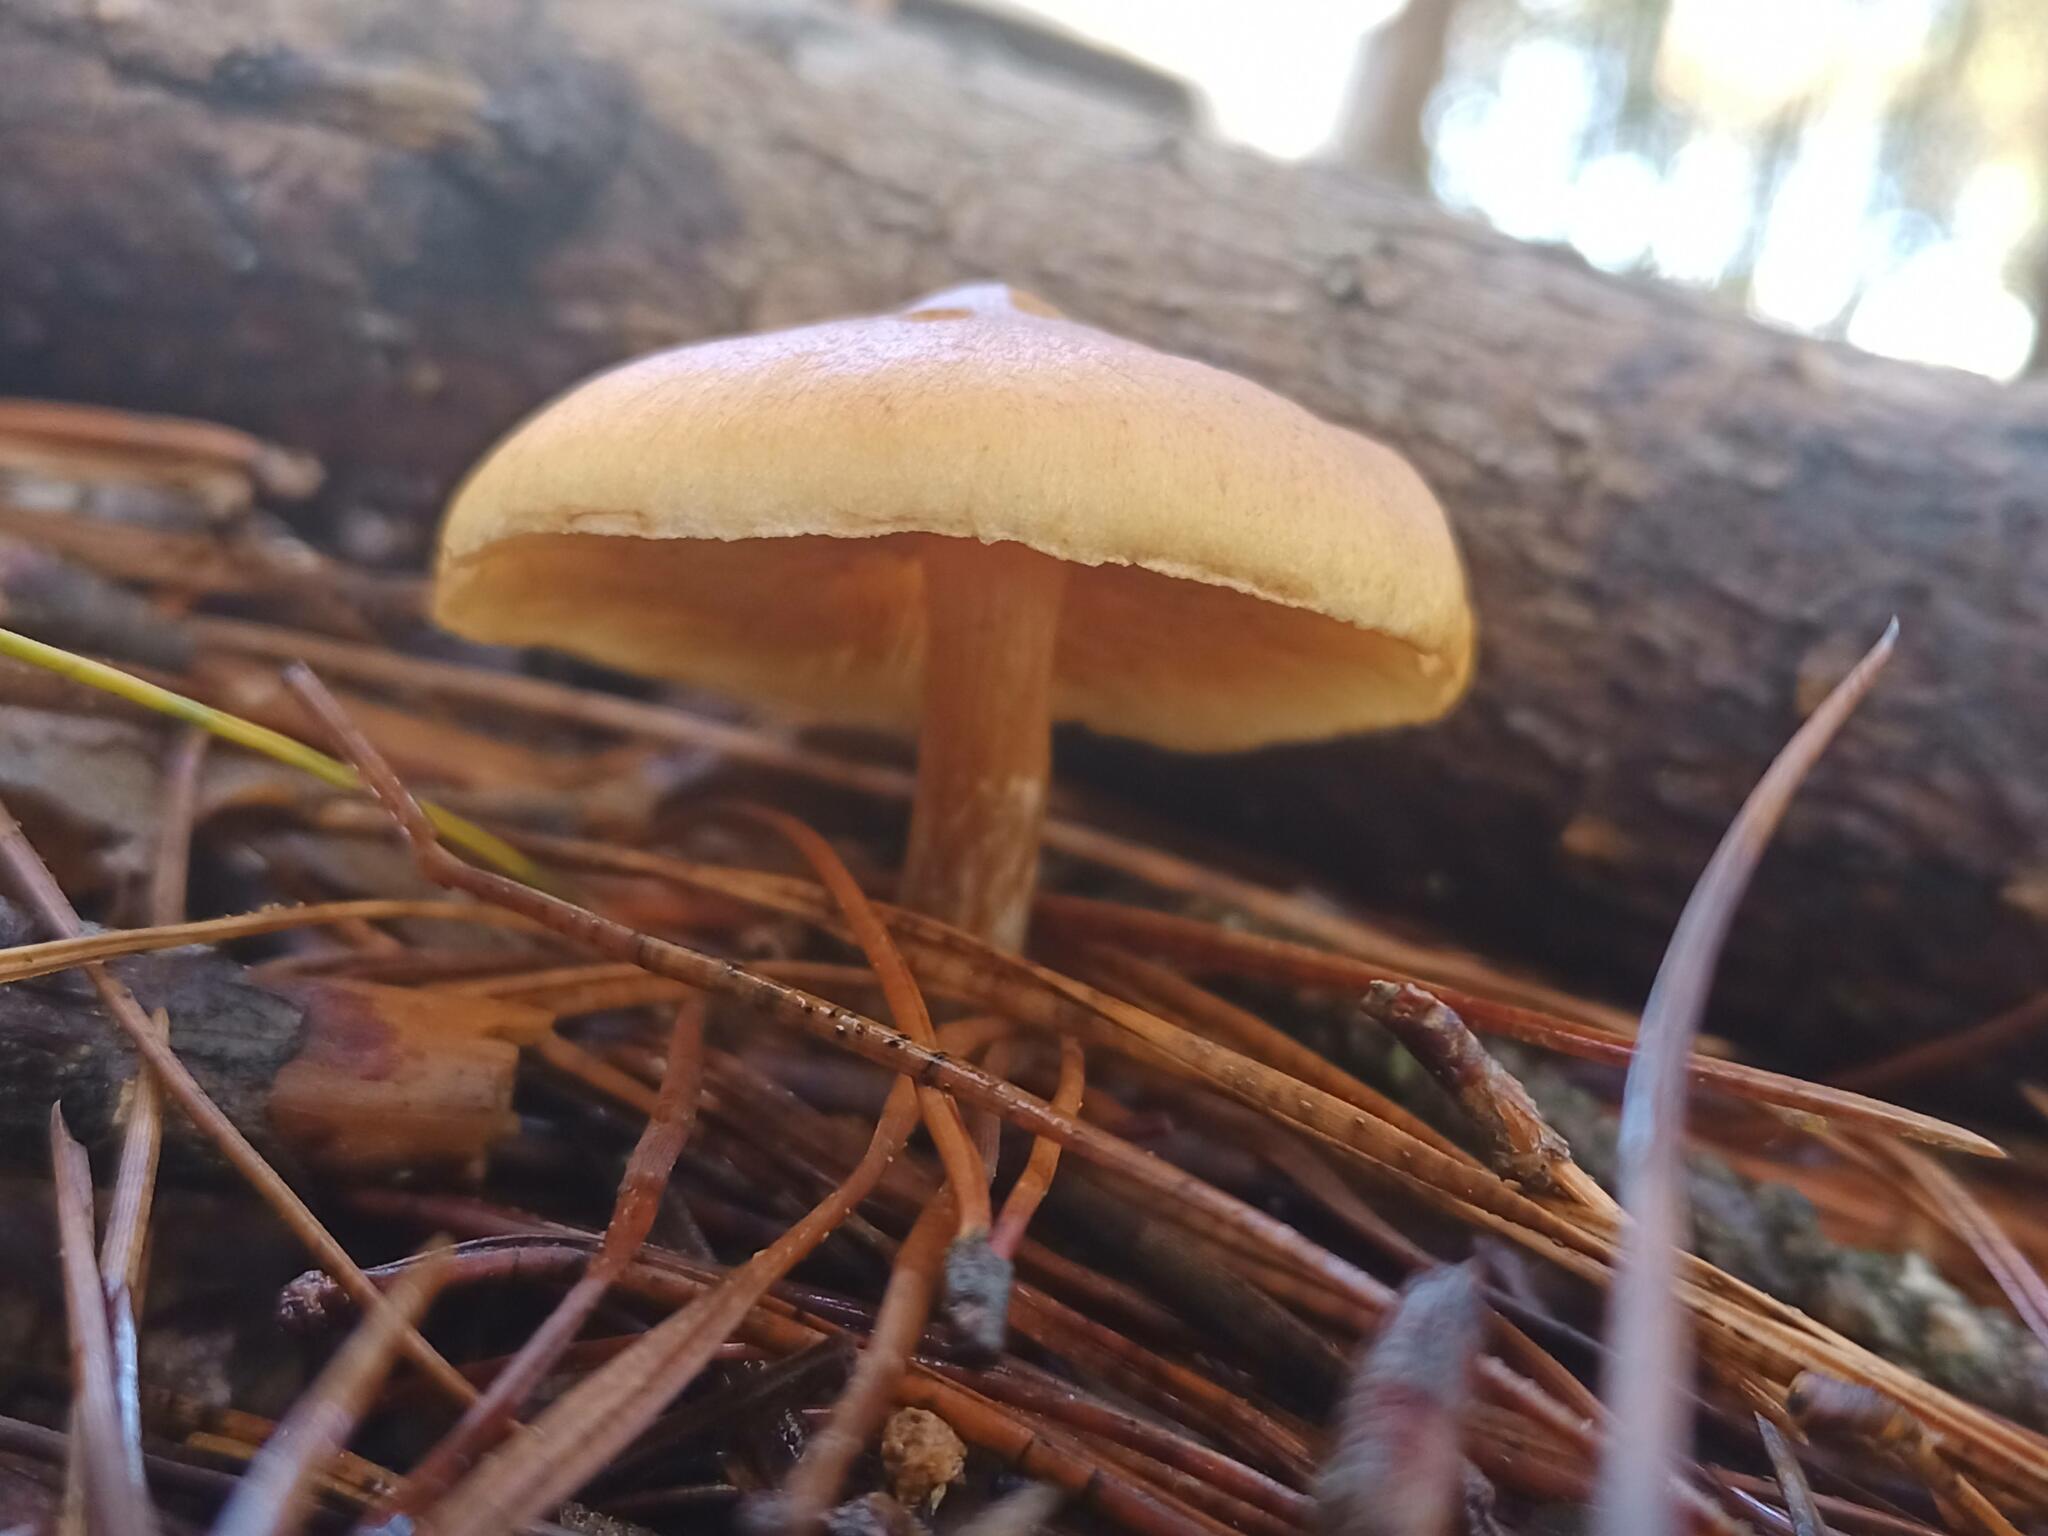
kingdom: Fungi
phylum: Basidiomycota
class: Agaricomycetes
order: Agaricales
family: Hymenogastraceae
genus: Gymnopilus
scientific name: Gymnopilus penetrans
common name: Common rustgill
